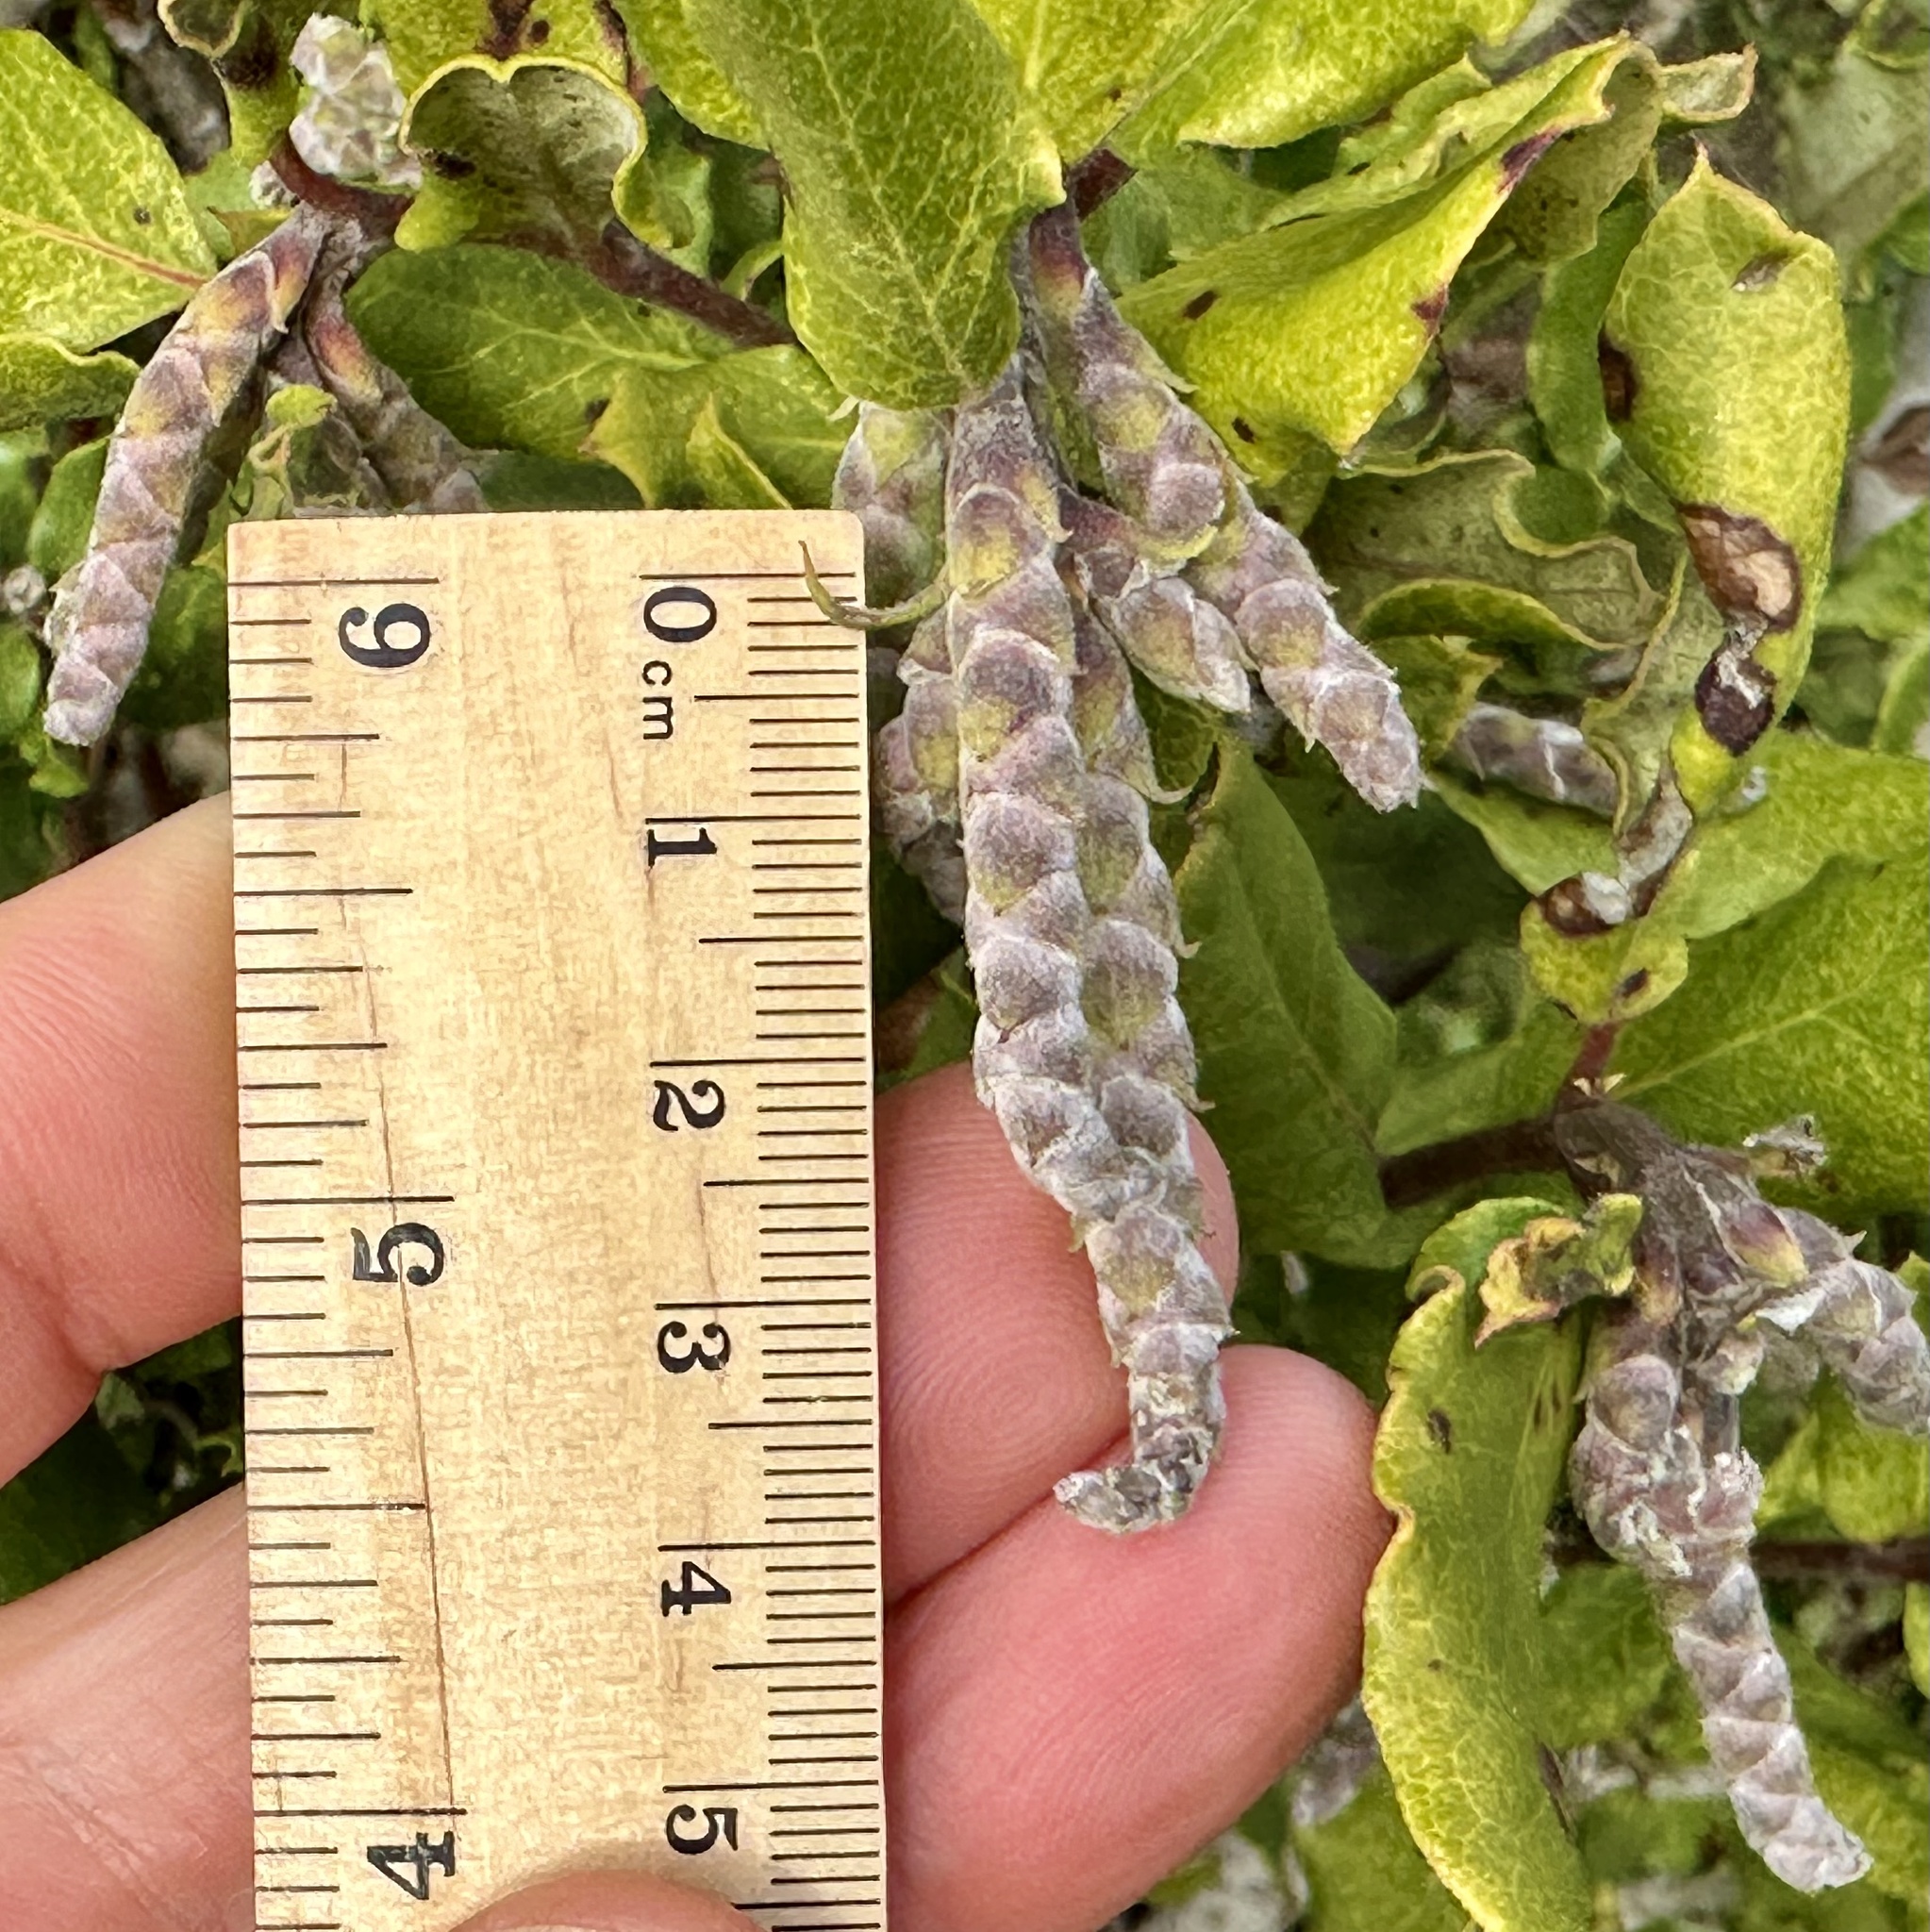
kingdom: Plantae
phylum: Tracheophyta
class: Magnoliopsida
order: Garryales
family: Garryaceae
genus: Garrya
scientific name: Garrya elliptica
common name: Silk-tassel
